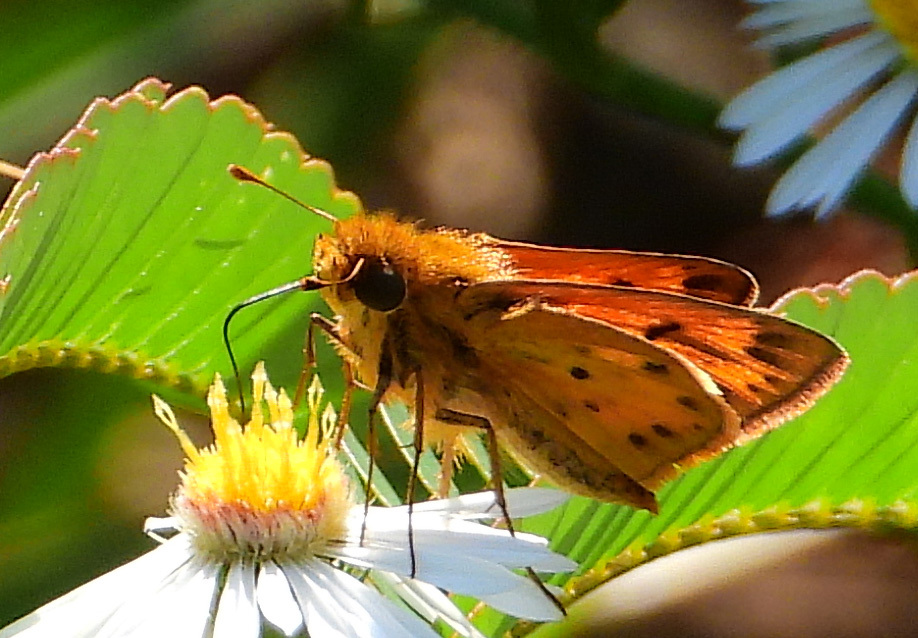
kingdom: Animalia
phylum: Arthropoda
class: Insecta
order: Lepidoptera
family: Hesperiidae
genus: Hylephila
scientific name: Hylephila phyleus
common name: Fiery skipper
